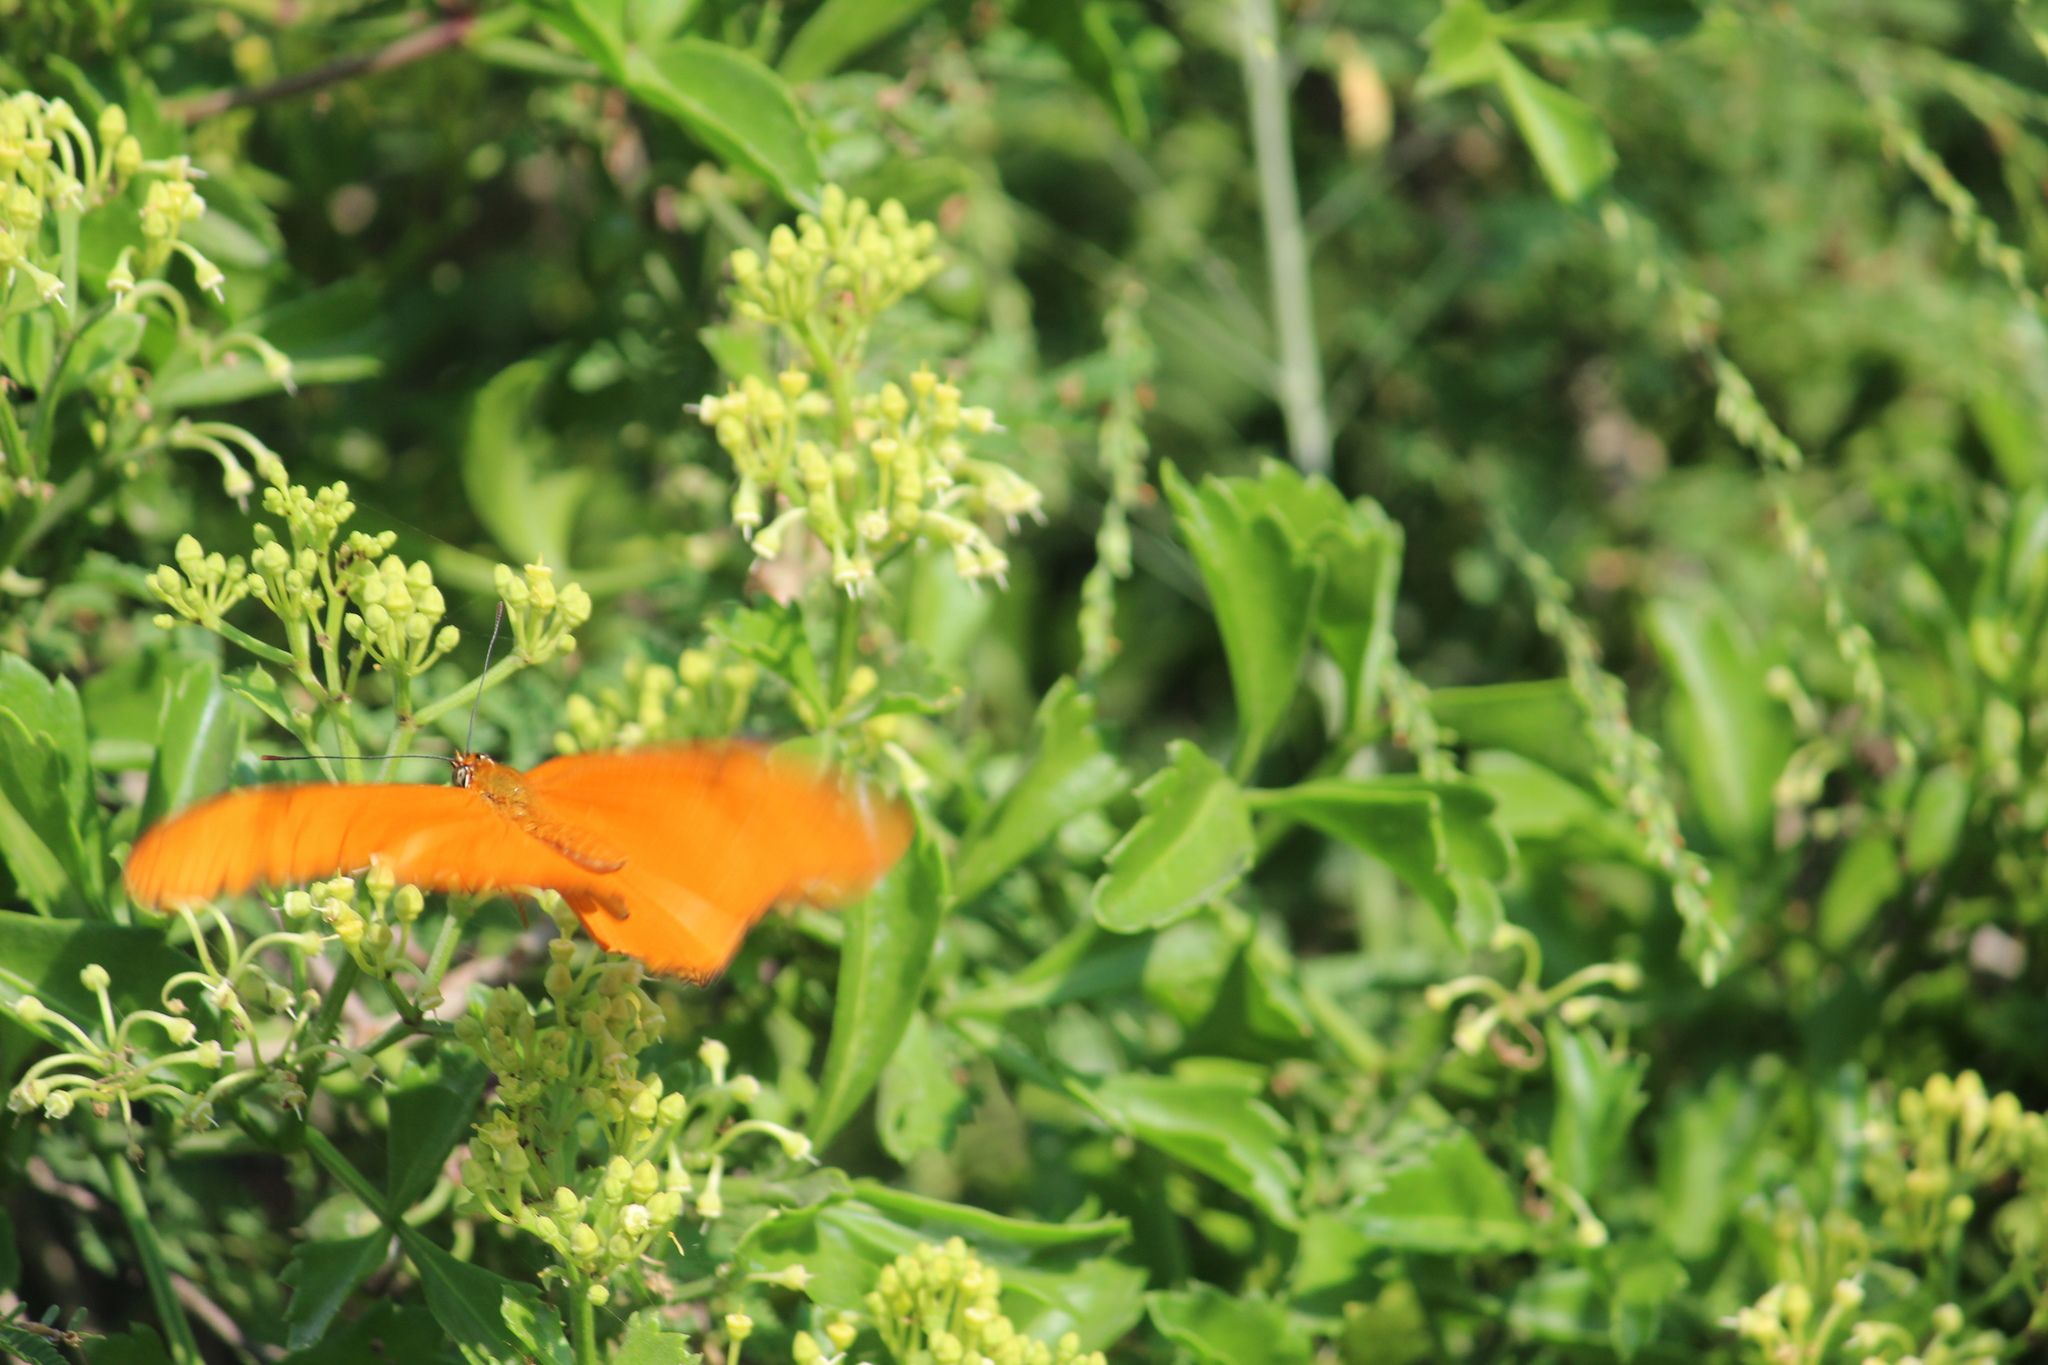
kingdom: Animalia
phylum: Arthropoda
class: Insecta
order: Lepidoptera
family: Nymphalidae
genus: Dryas
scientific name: Dryas iulia
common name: Flambeau
